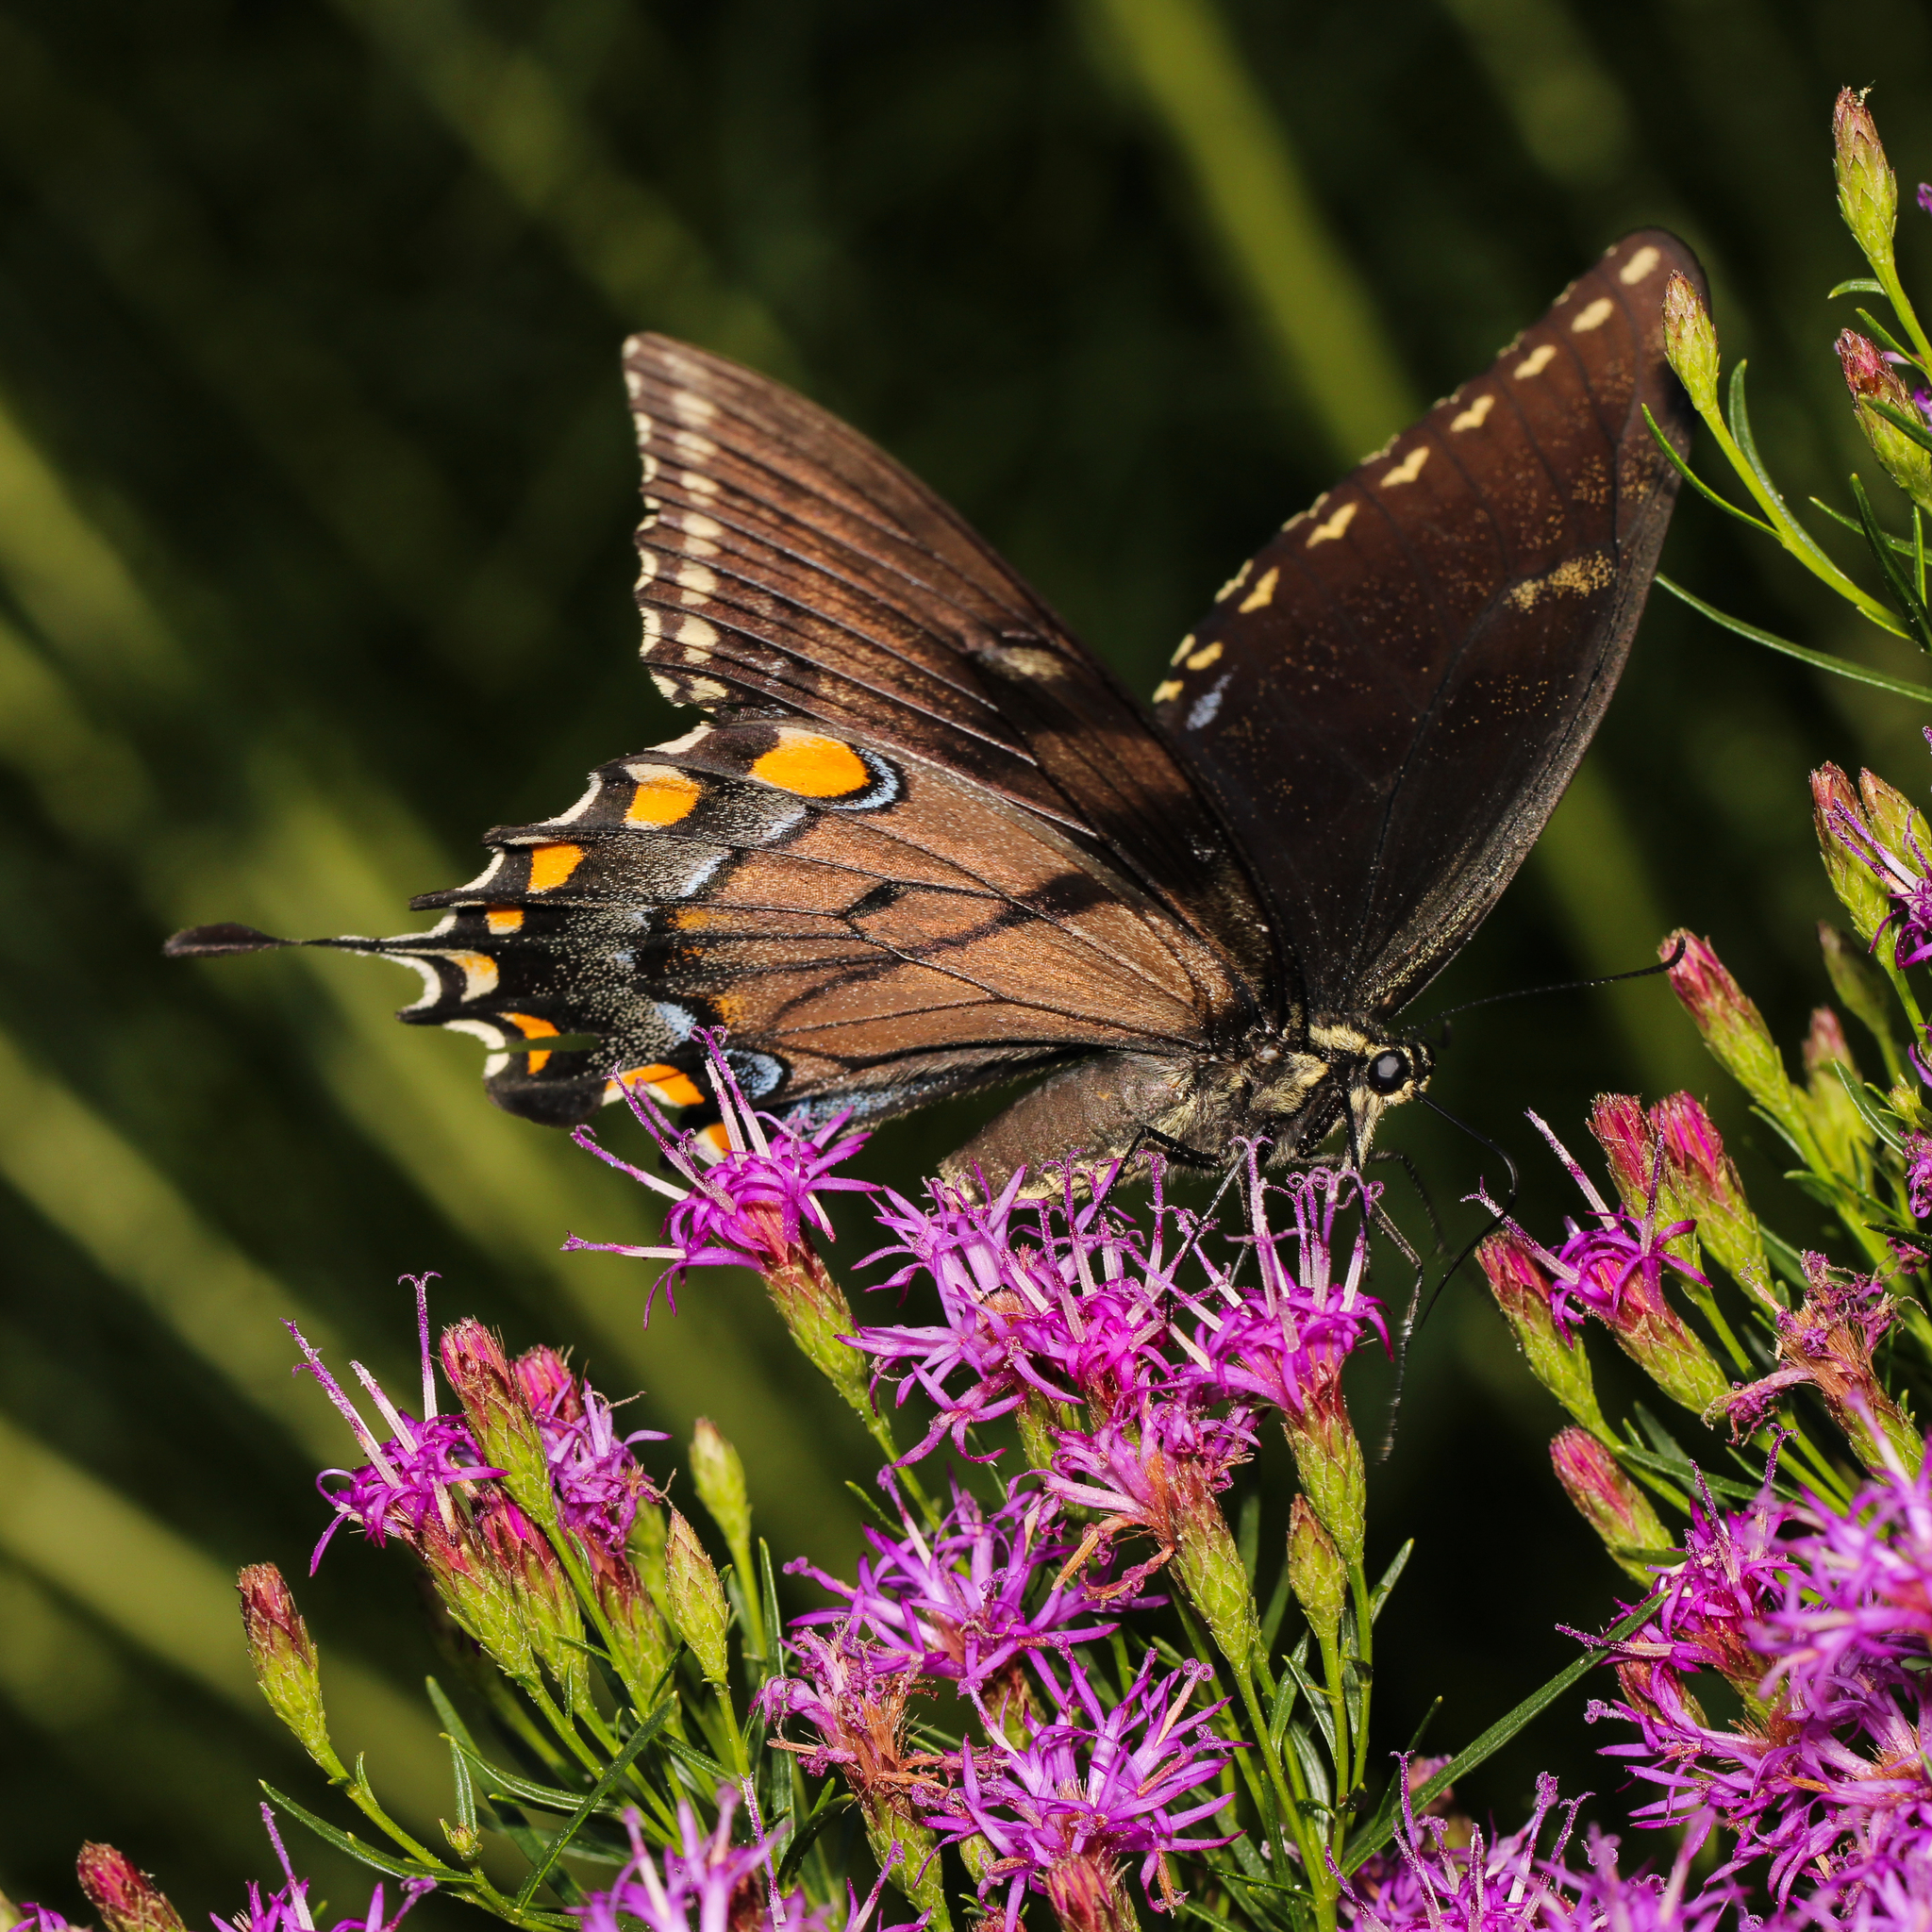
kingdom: Animalia
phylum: Arthropoda
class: Insecta
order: Lepidoptera
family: Papilionidae
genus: Papilio
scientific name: Papilio glaucus
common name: Tiger swallowtail
